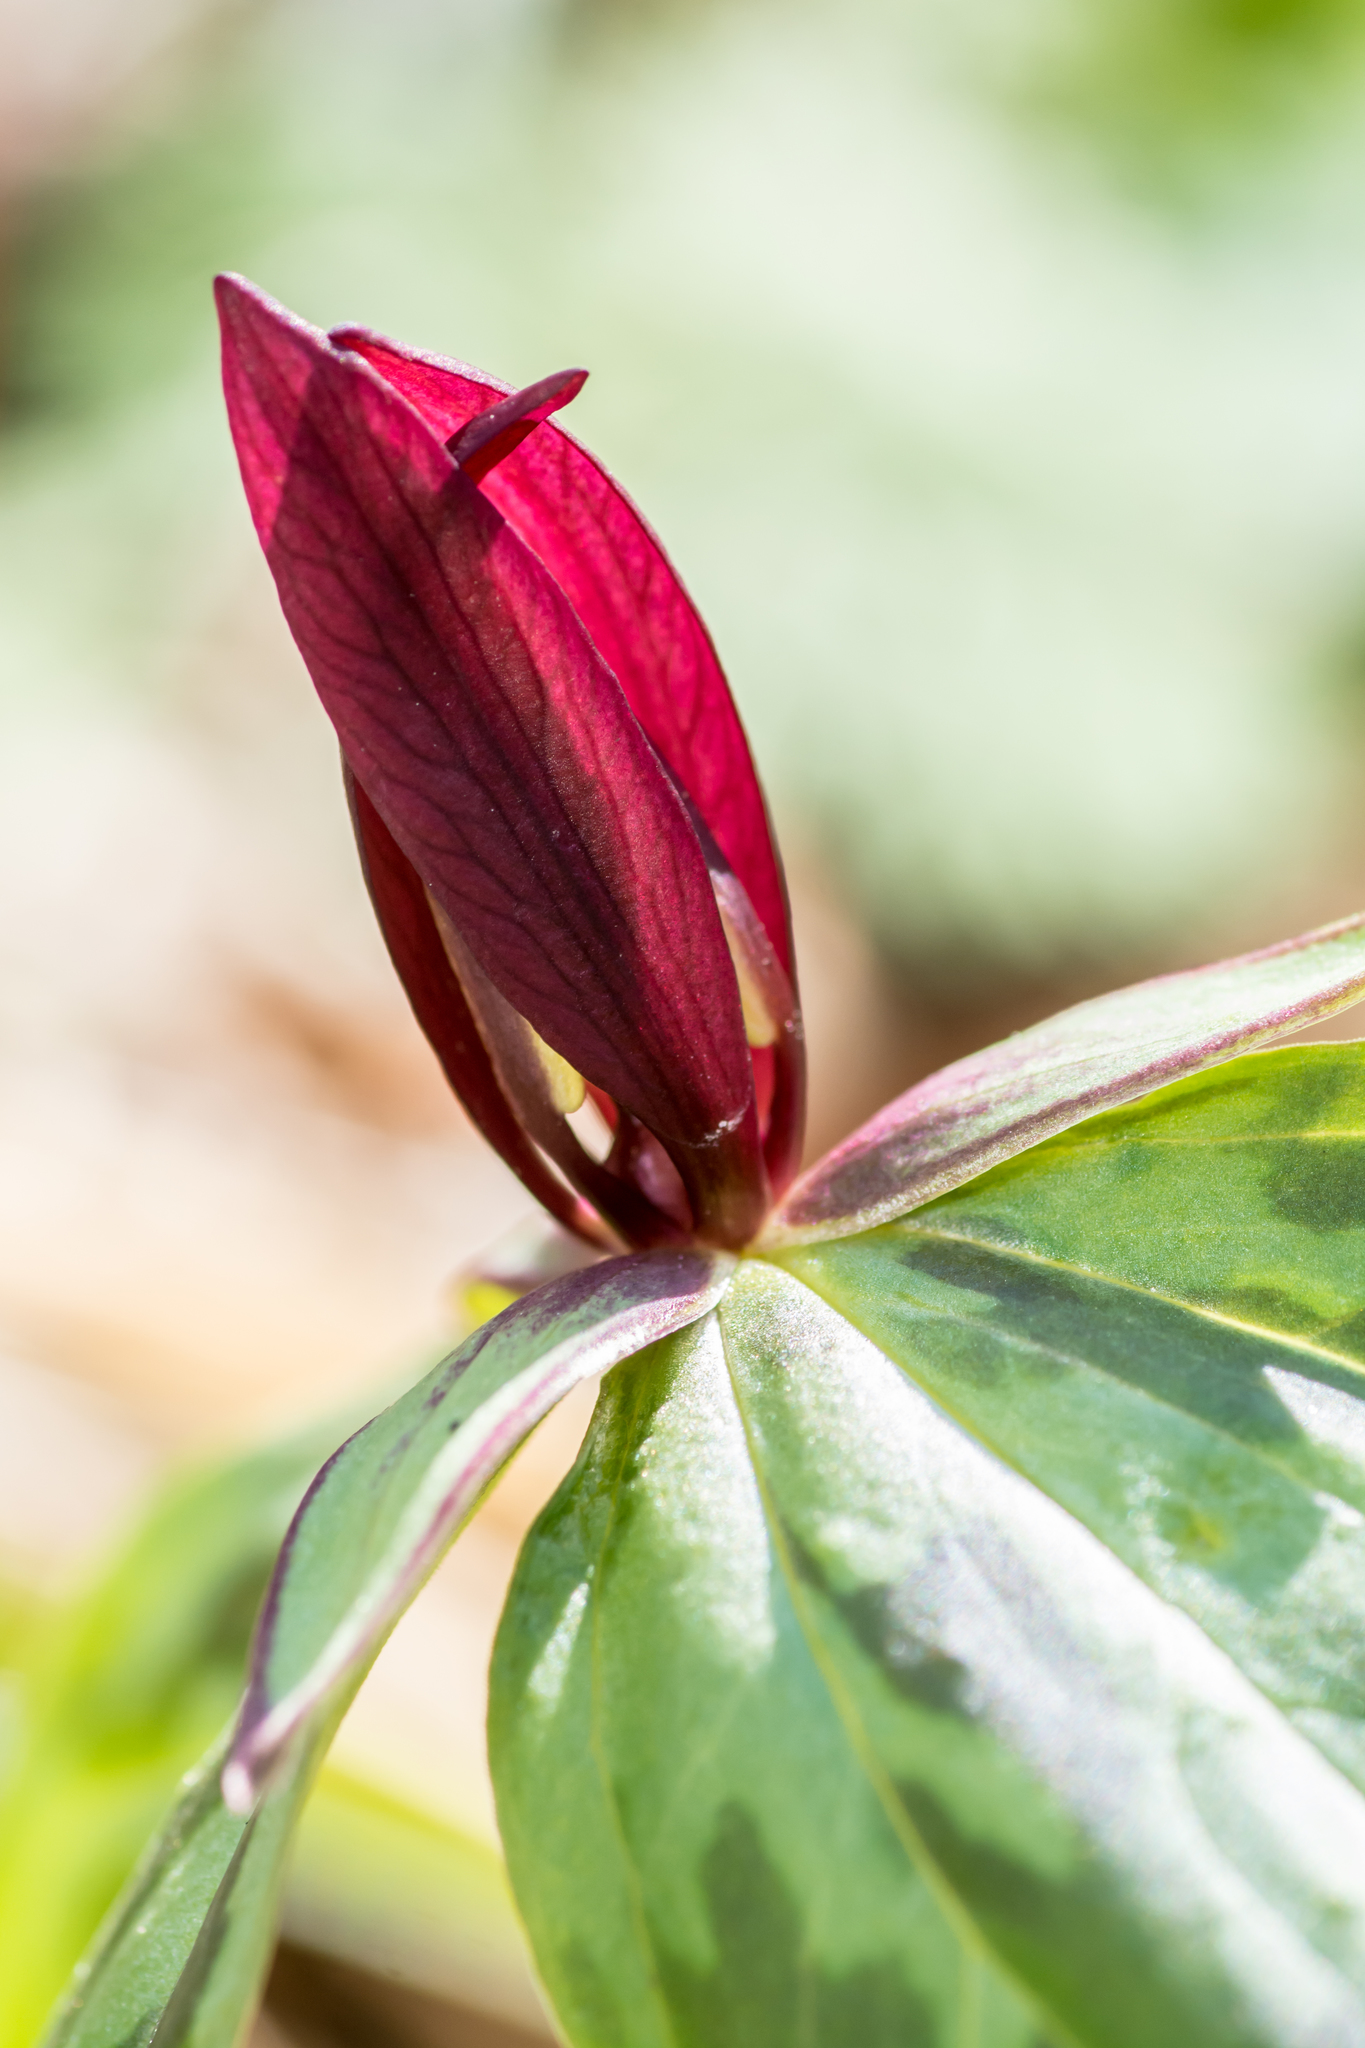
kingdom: Plantae
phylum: Tracheophyta
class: Liliopsida
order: Liliales
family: Melanthiaceae
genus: Trillium
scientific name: Trillium sessile
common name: Sessile trillium
